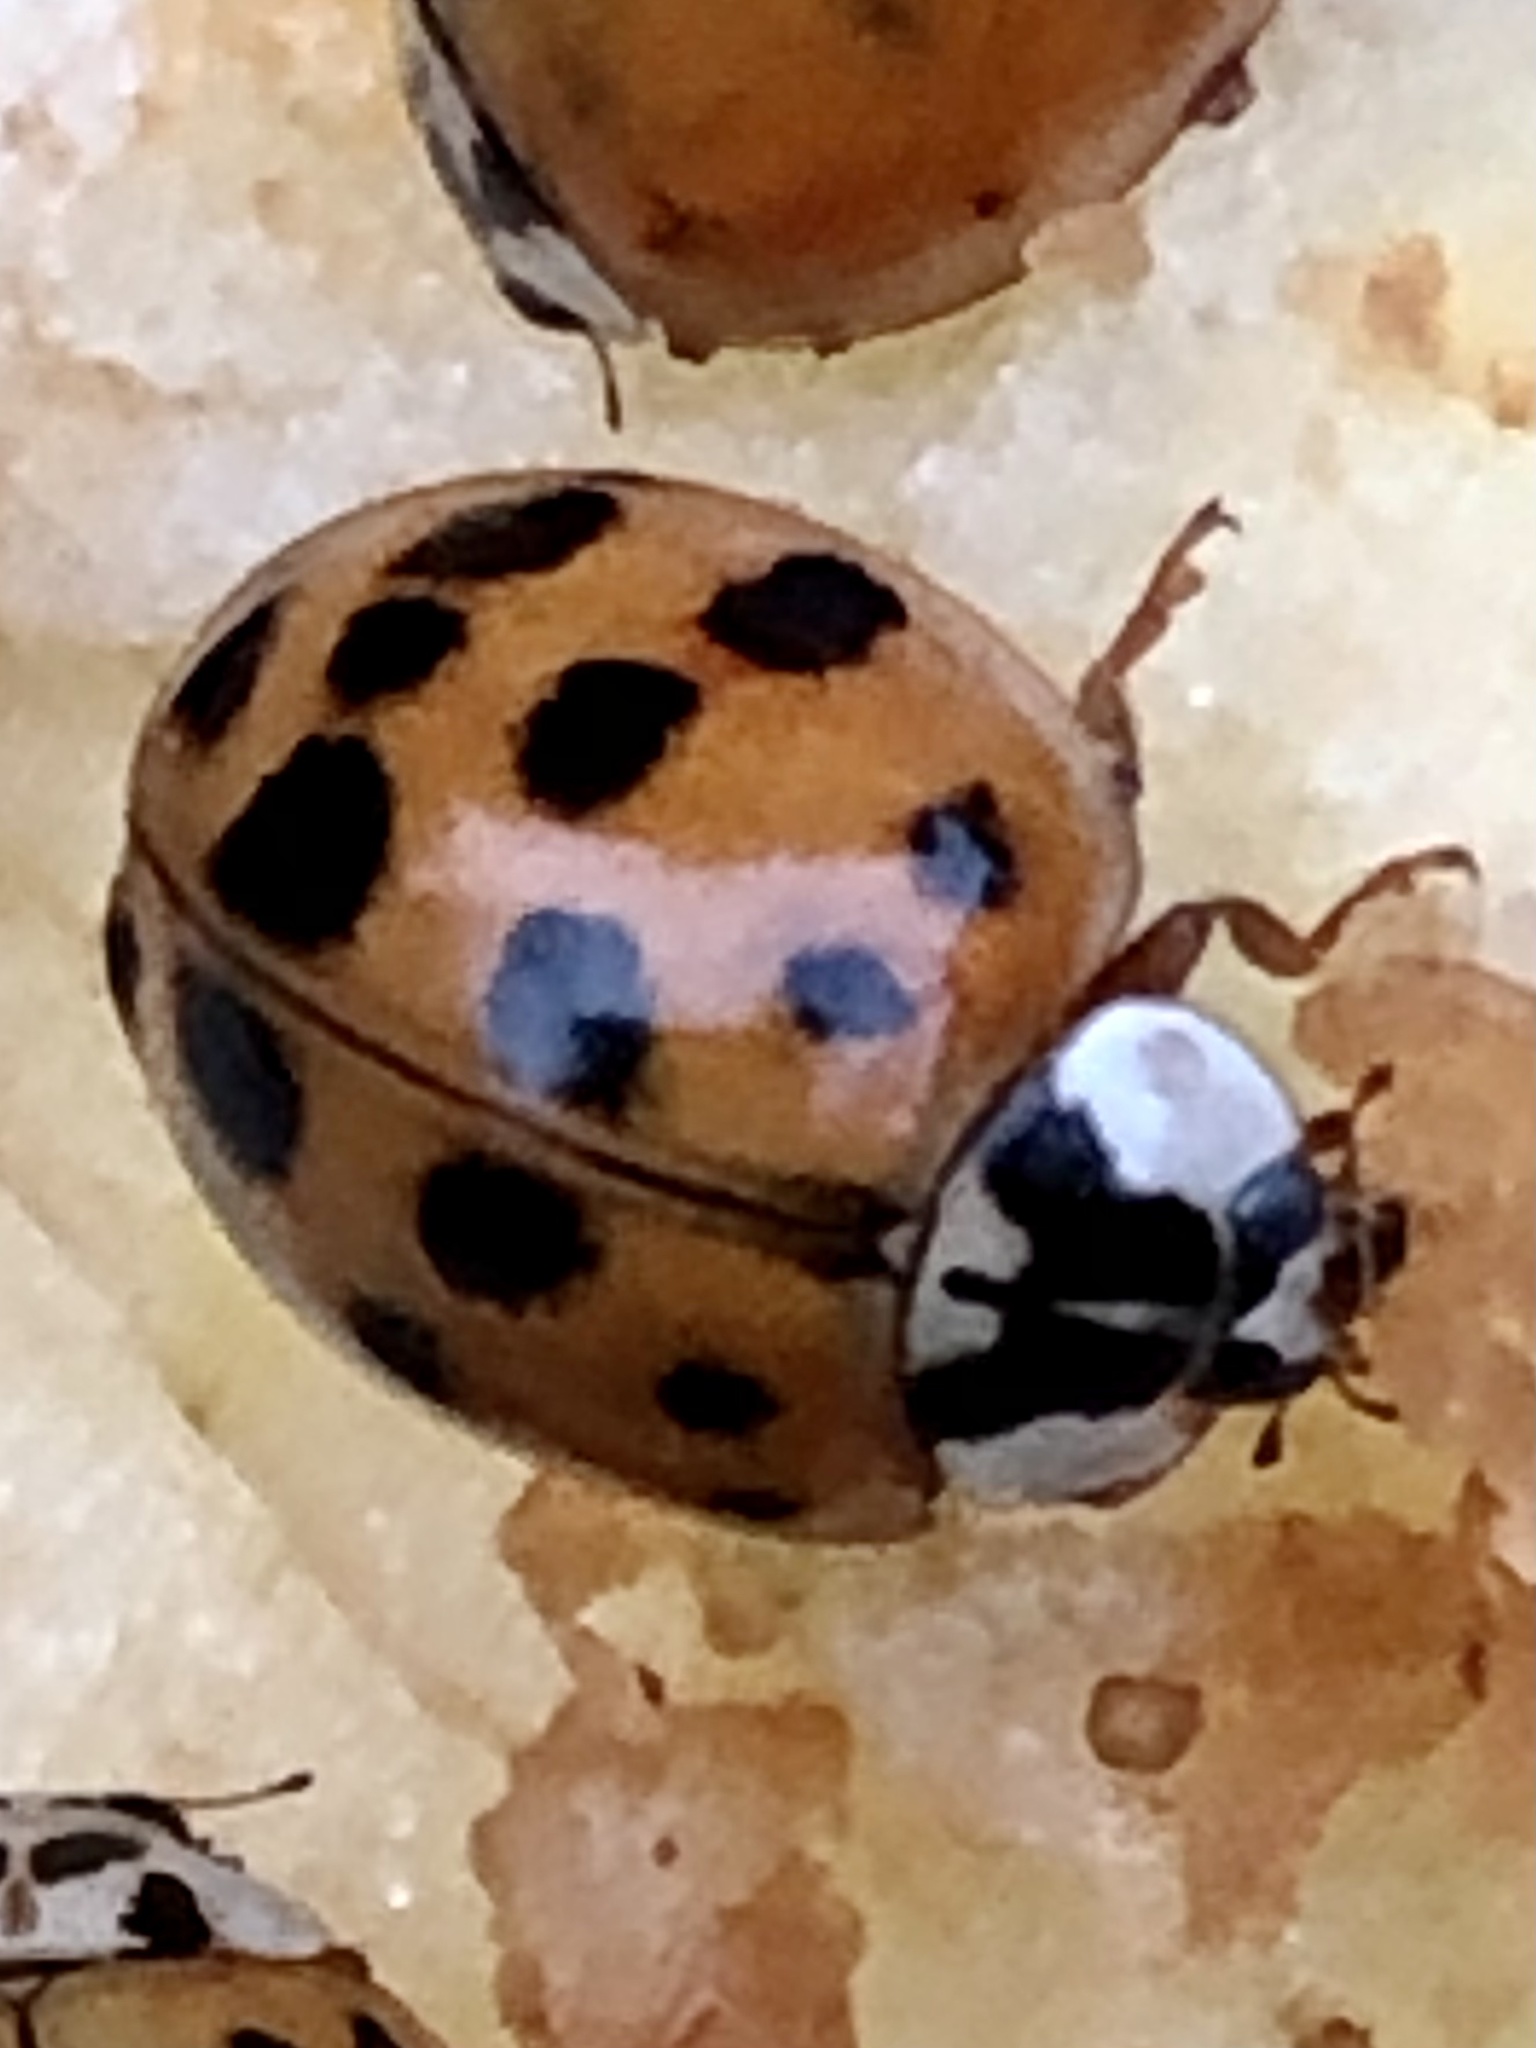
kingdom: Animalia
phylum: Arthropoda
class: Insecta
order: Coleoptera
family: Coccinellidae
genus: Harmonia
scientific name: Harmonia axyridis
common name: Harlequin ladybird
